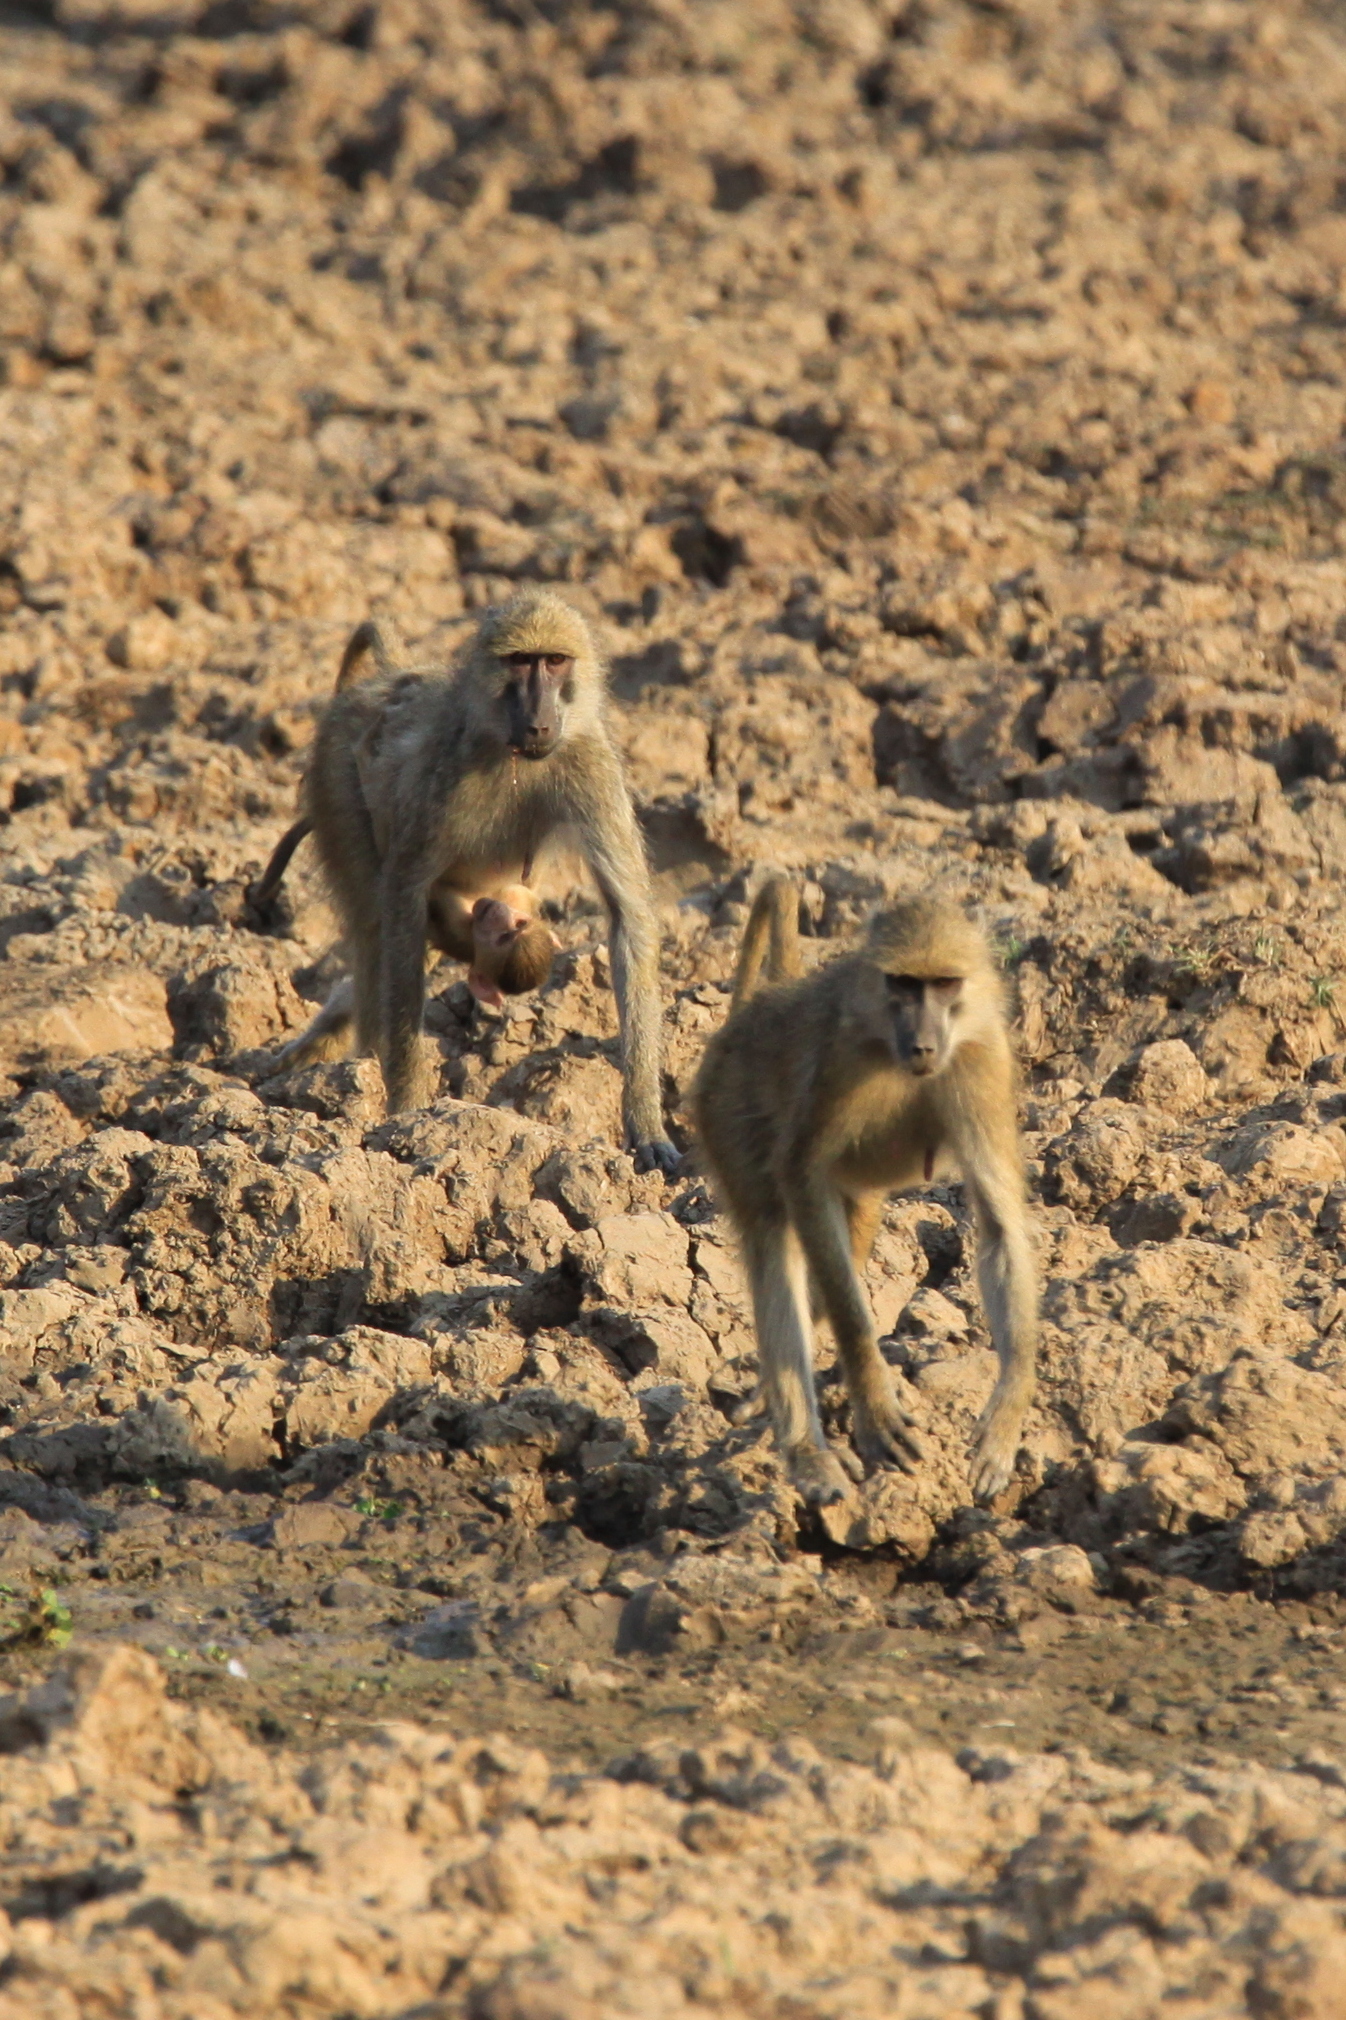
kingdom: Animalia
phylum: Chordata
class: Mammalia
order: Primates
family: Cercopithecidae
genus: Papio
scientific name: Papio cynocephalus
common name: Yellow baboon
